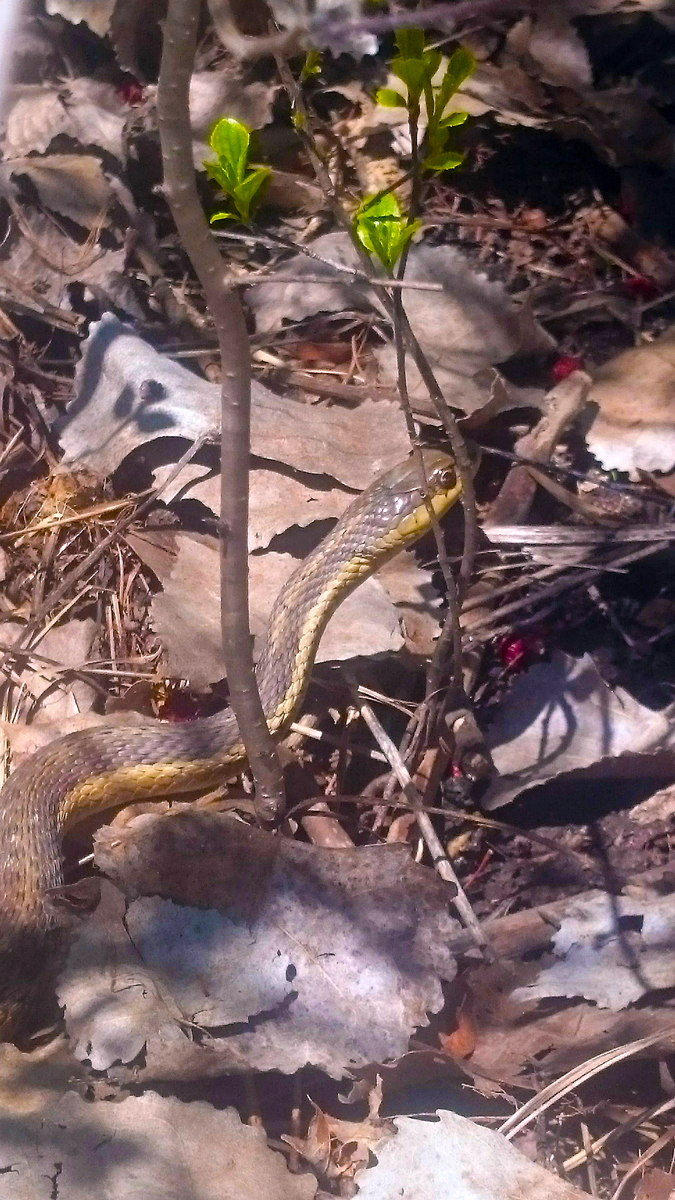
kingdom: Animalia
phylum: Chordata
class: Squamata
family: Colubridae
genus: Thamnophis
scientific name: Thamnophis sirtalis
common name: Common garter snake
